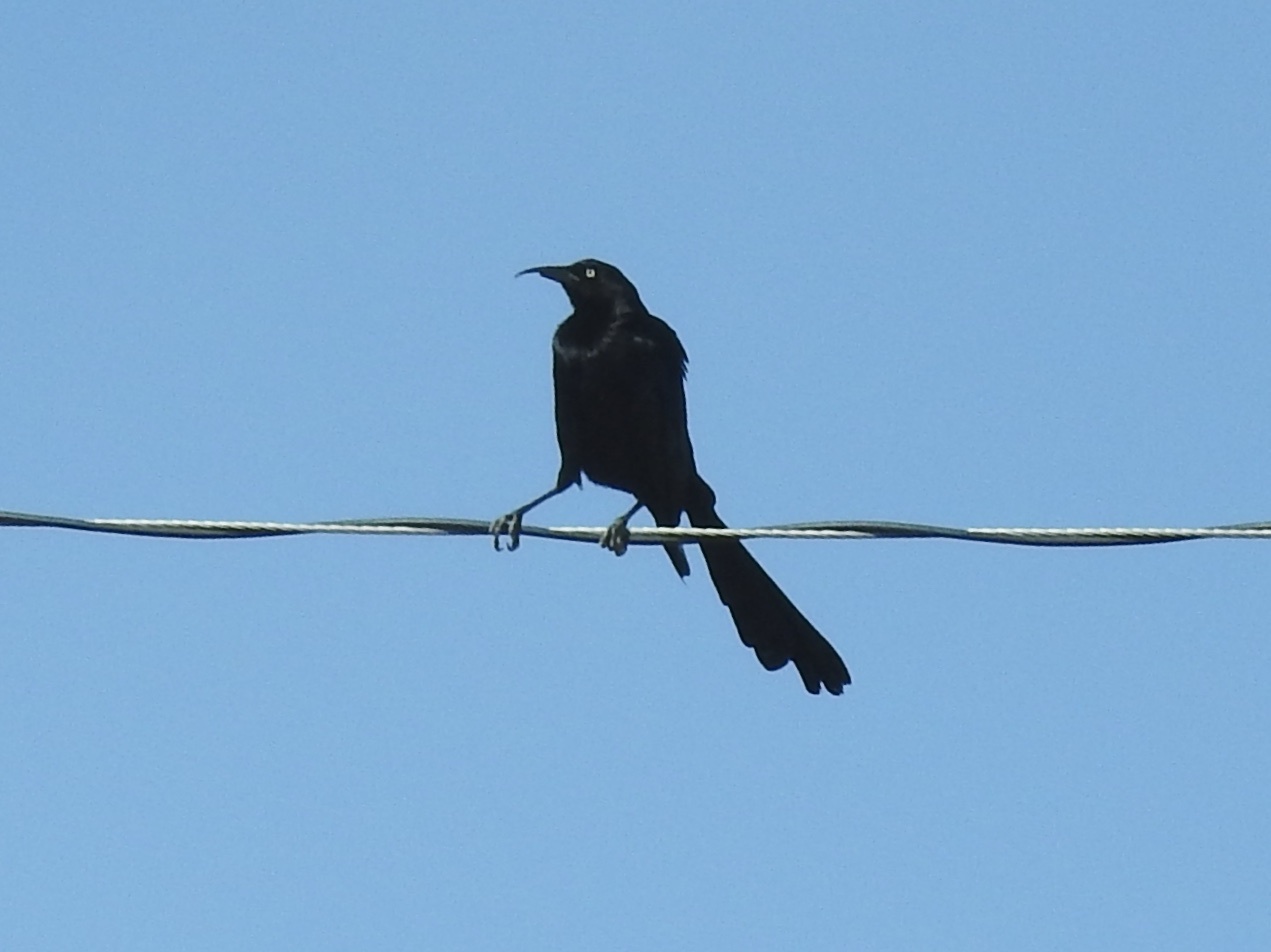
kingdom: Animalia
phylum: Chordata
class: Aves
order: Passeriformes
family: Icteridae
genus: Quiscalus
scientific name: Quiscalus mexicanus
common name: Great-tailed grackle
